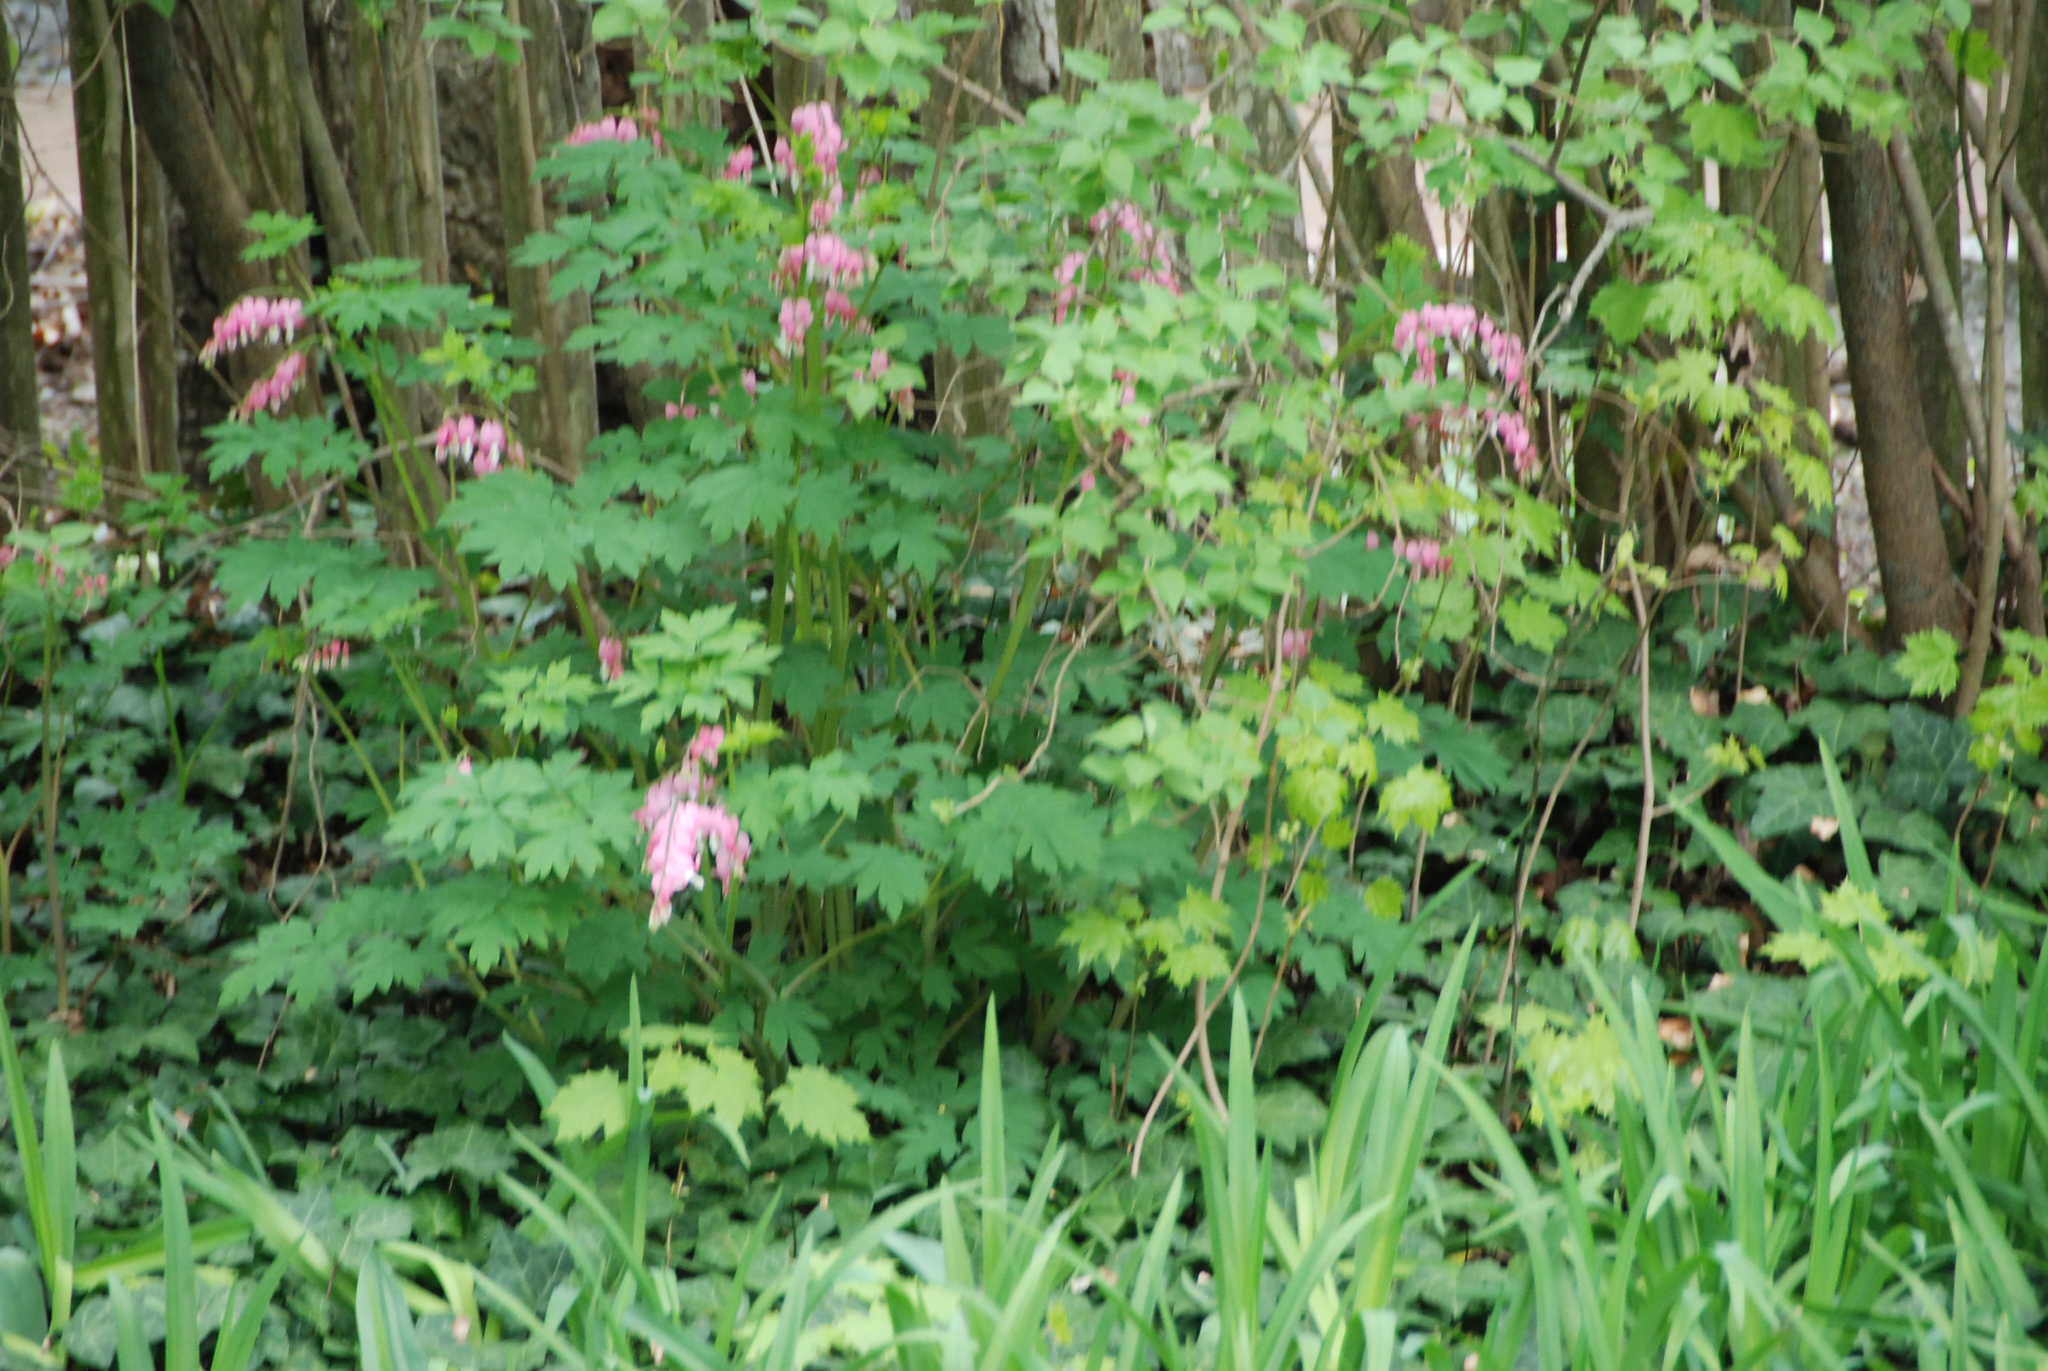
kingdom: Plantae
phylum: Tracheophyta
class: Magnoliopsida
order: Ranunculales
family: Papaveraceae
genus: Dicentra
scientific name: Dicentra eximia
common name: Turkey-corn
